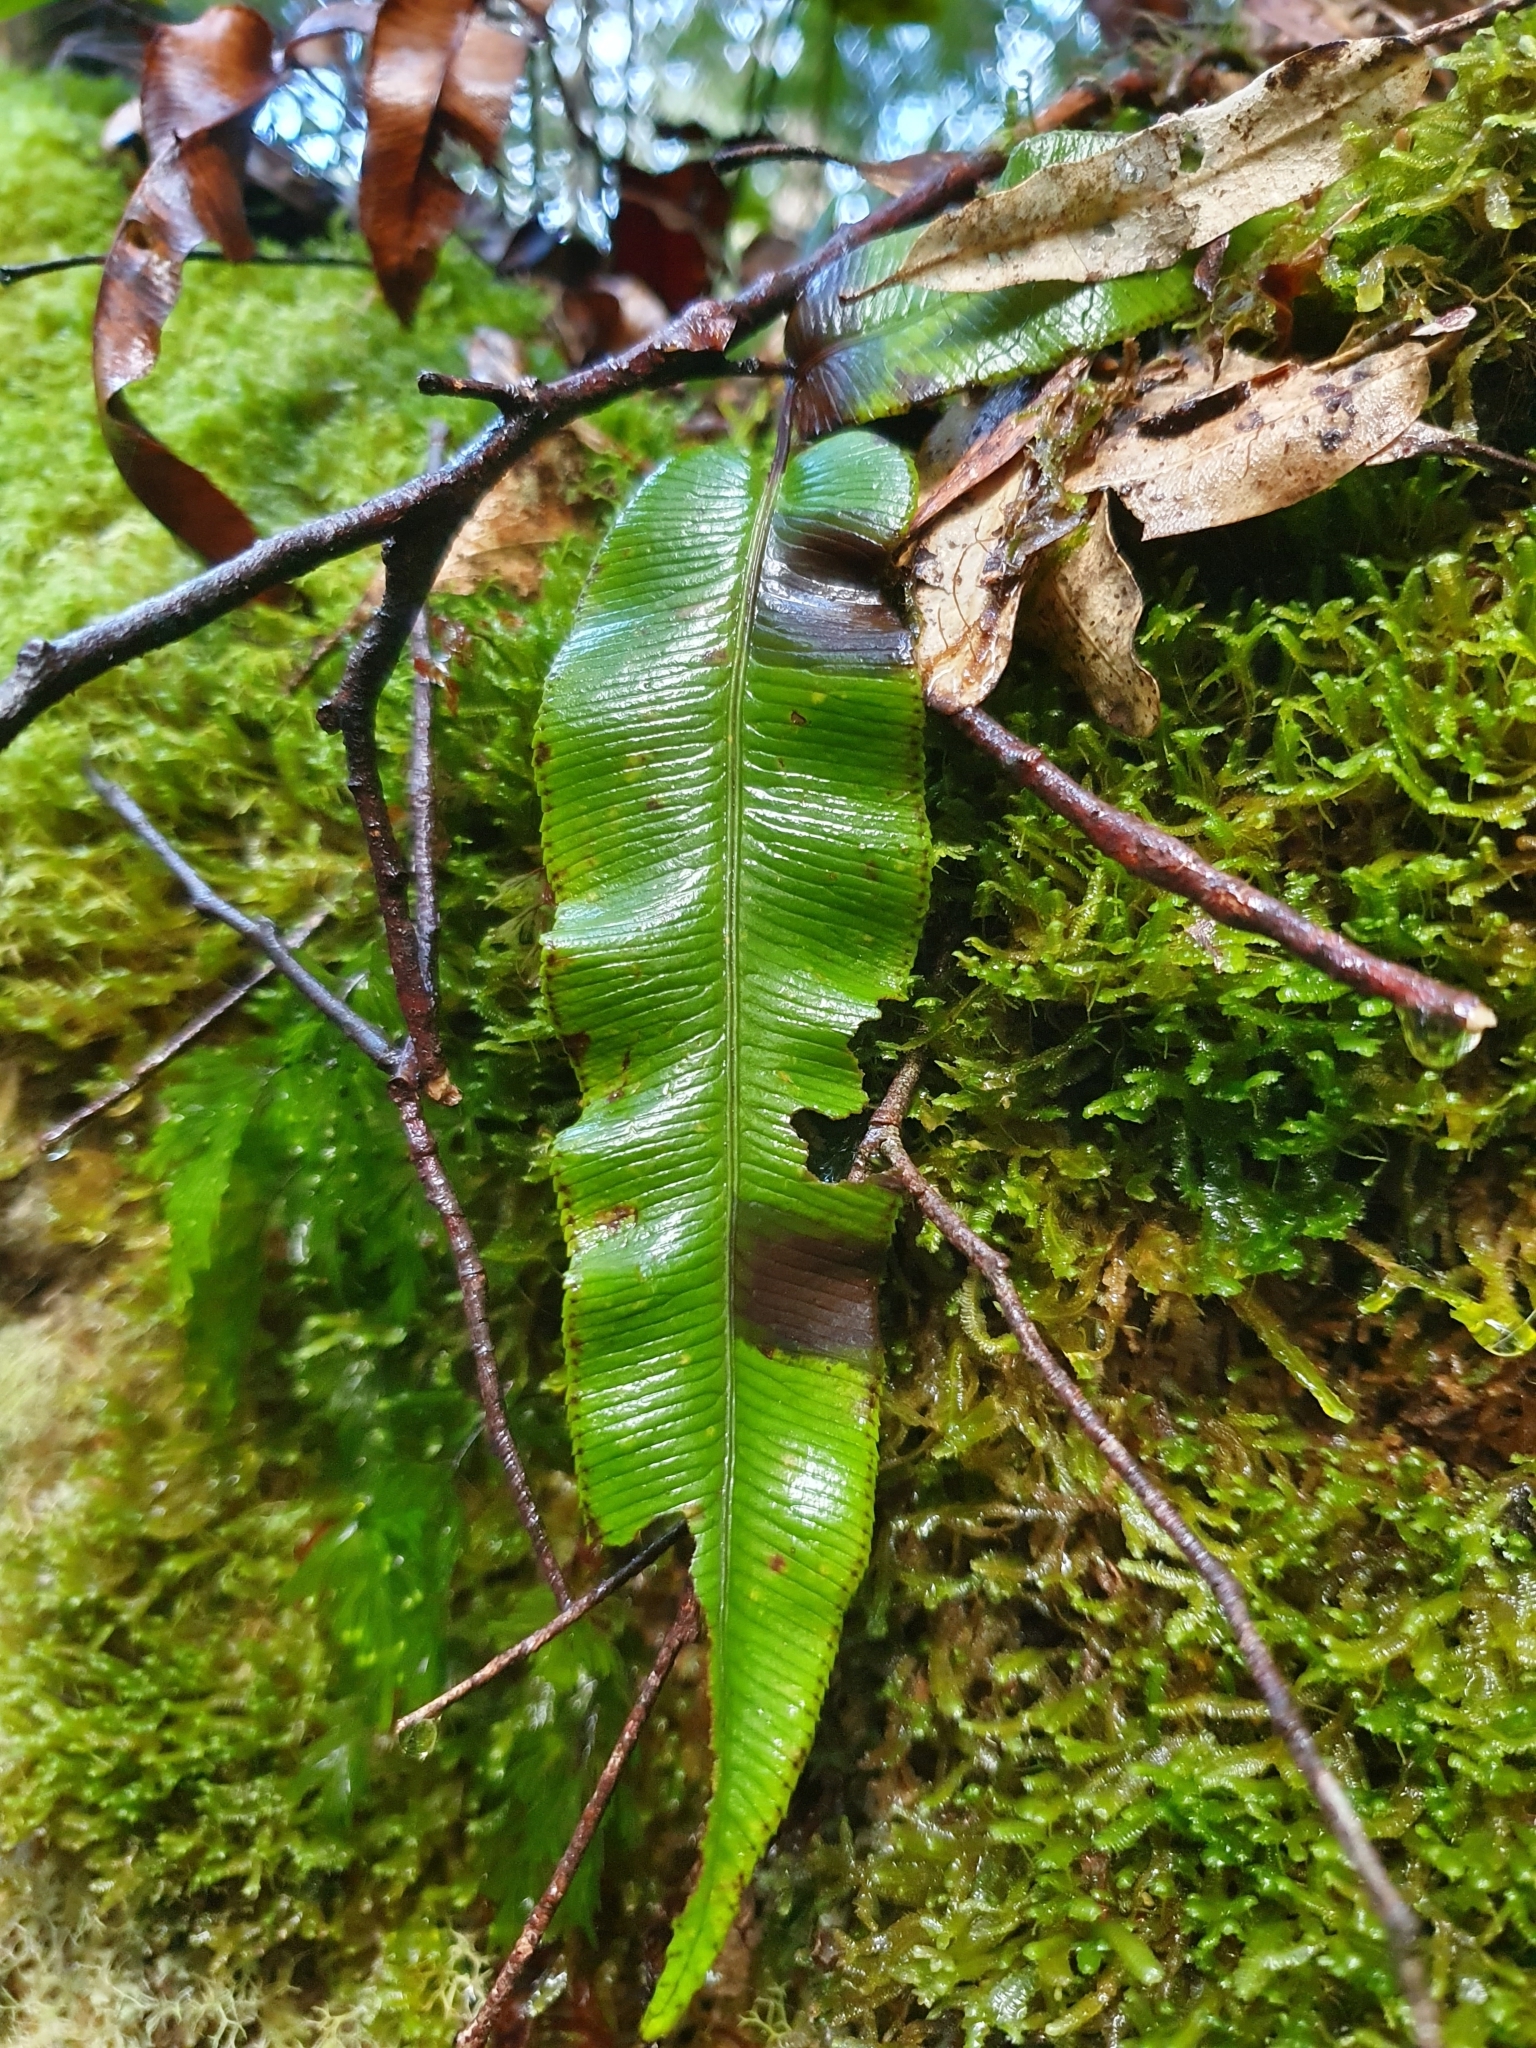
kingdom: Plantae
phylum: Tracheophyta
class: Polypodiopsida
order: Polypodiales
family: Blechnaceae
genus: Parablechnum
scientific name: Parablechnum wattsii
